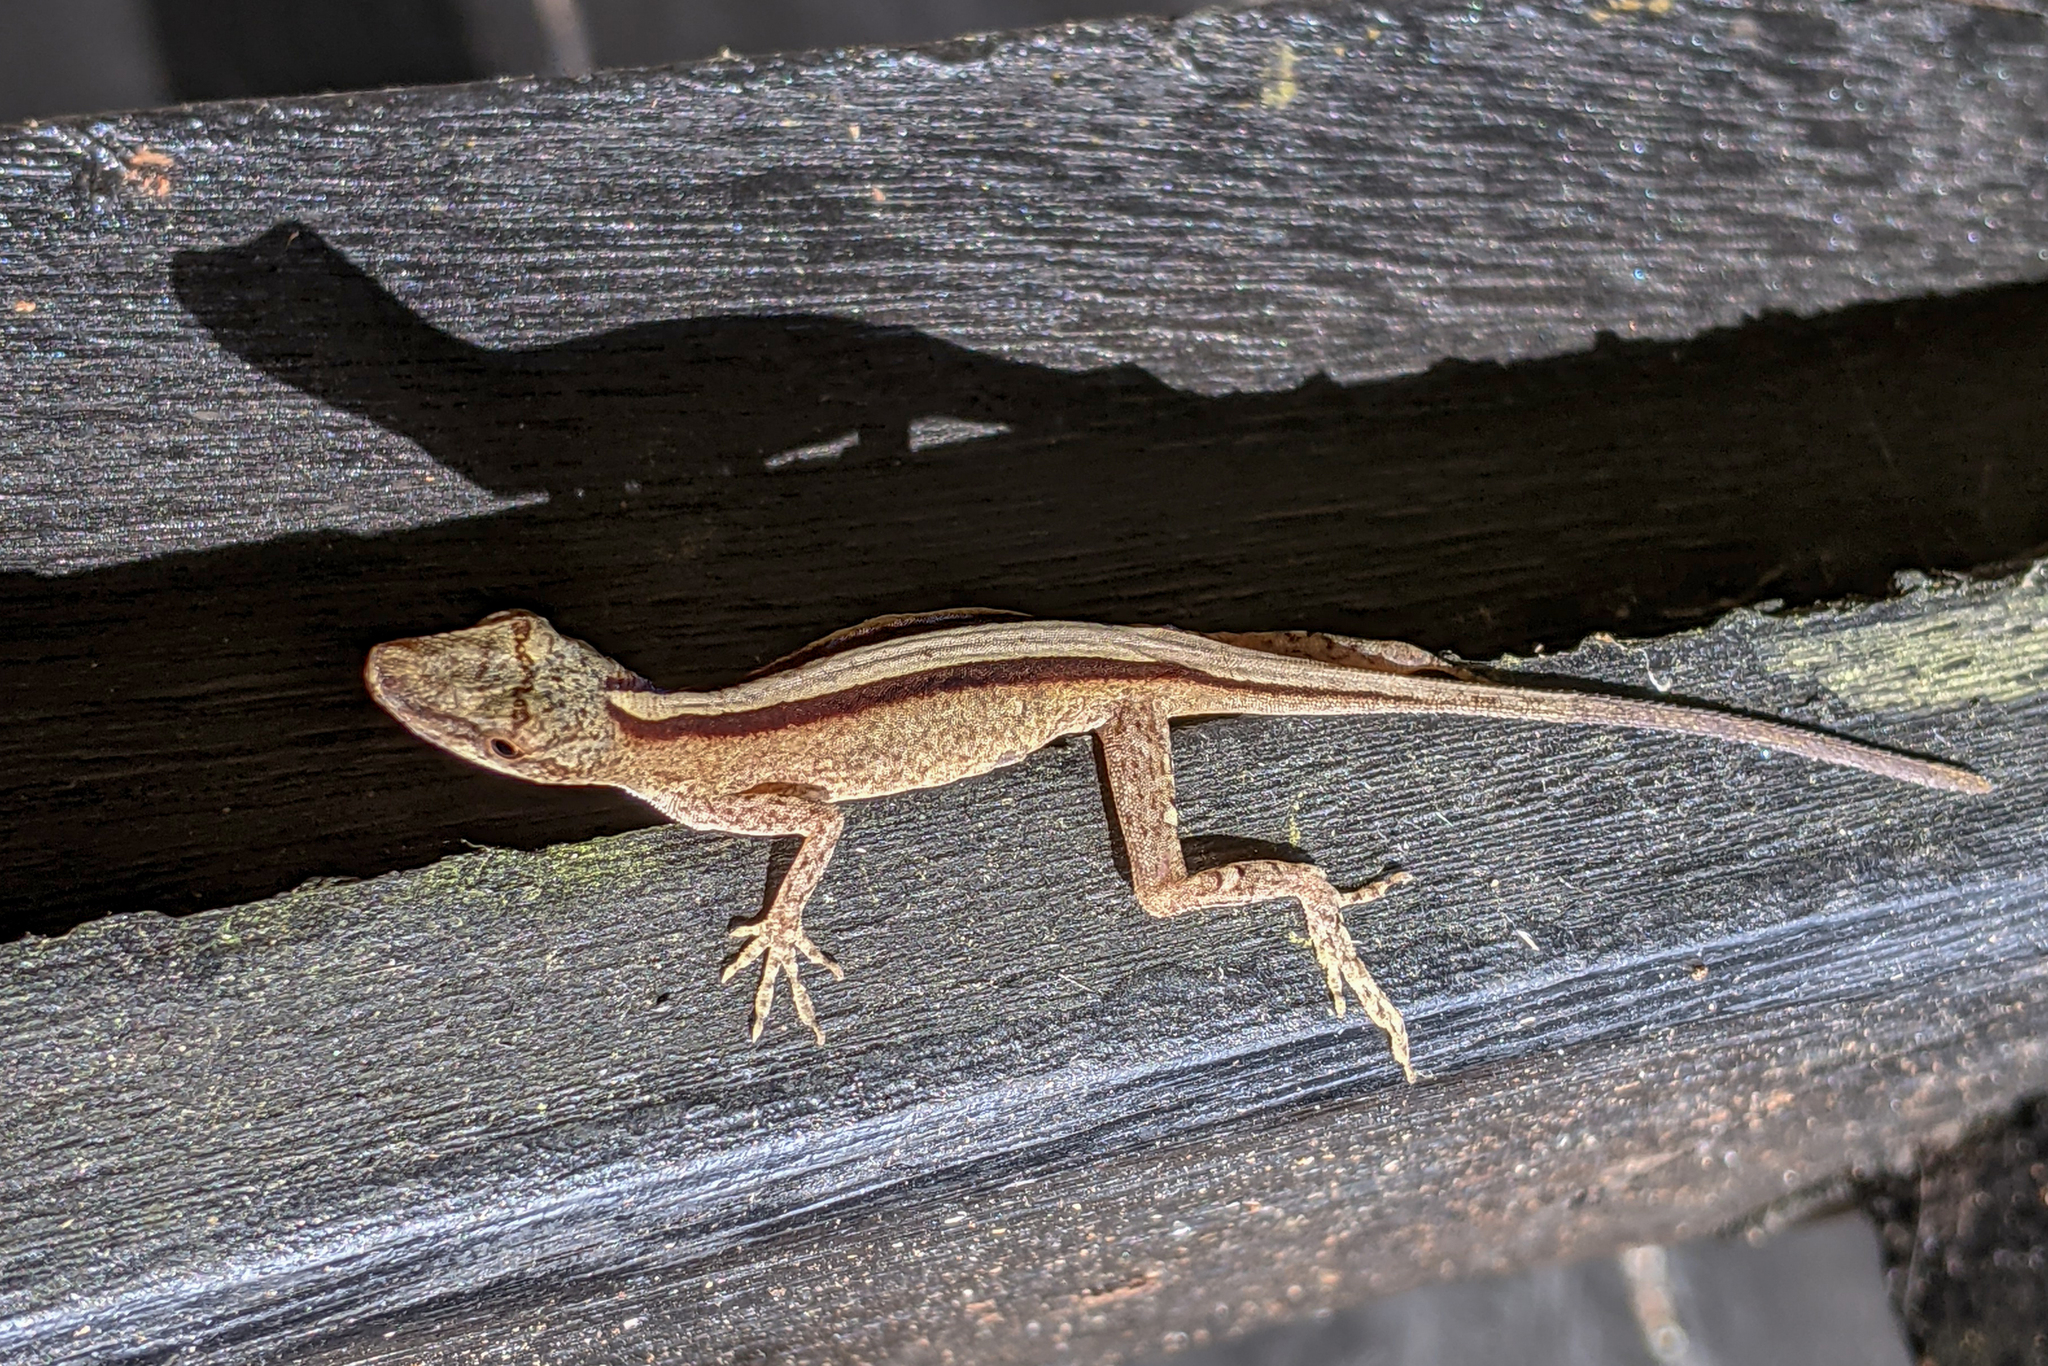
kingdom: Animalia
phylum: Chordata
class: Squamata
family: Dactyloidae
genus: Anolis
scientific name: Anolis fuscoauratus
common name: Brown-eared anole
